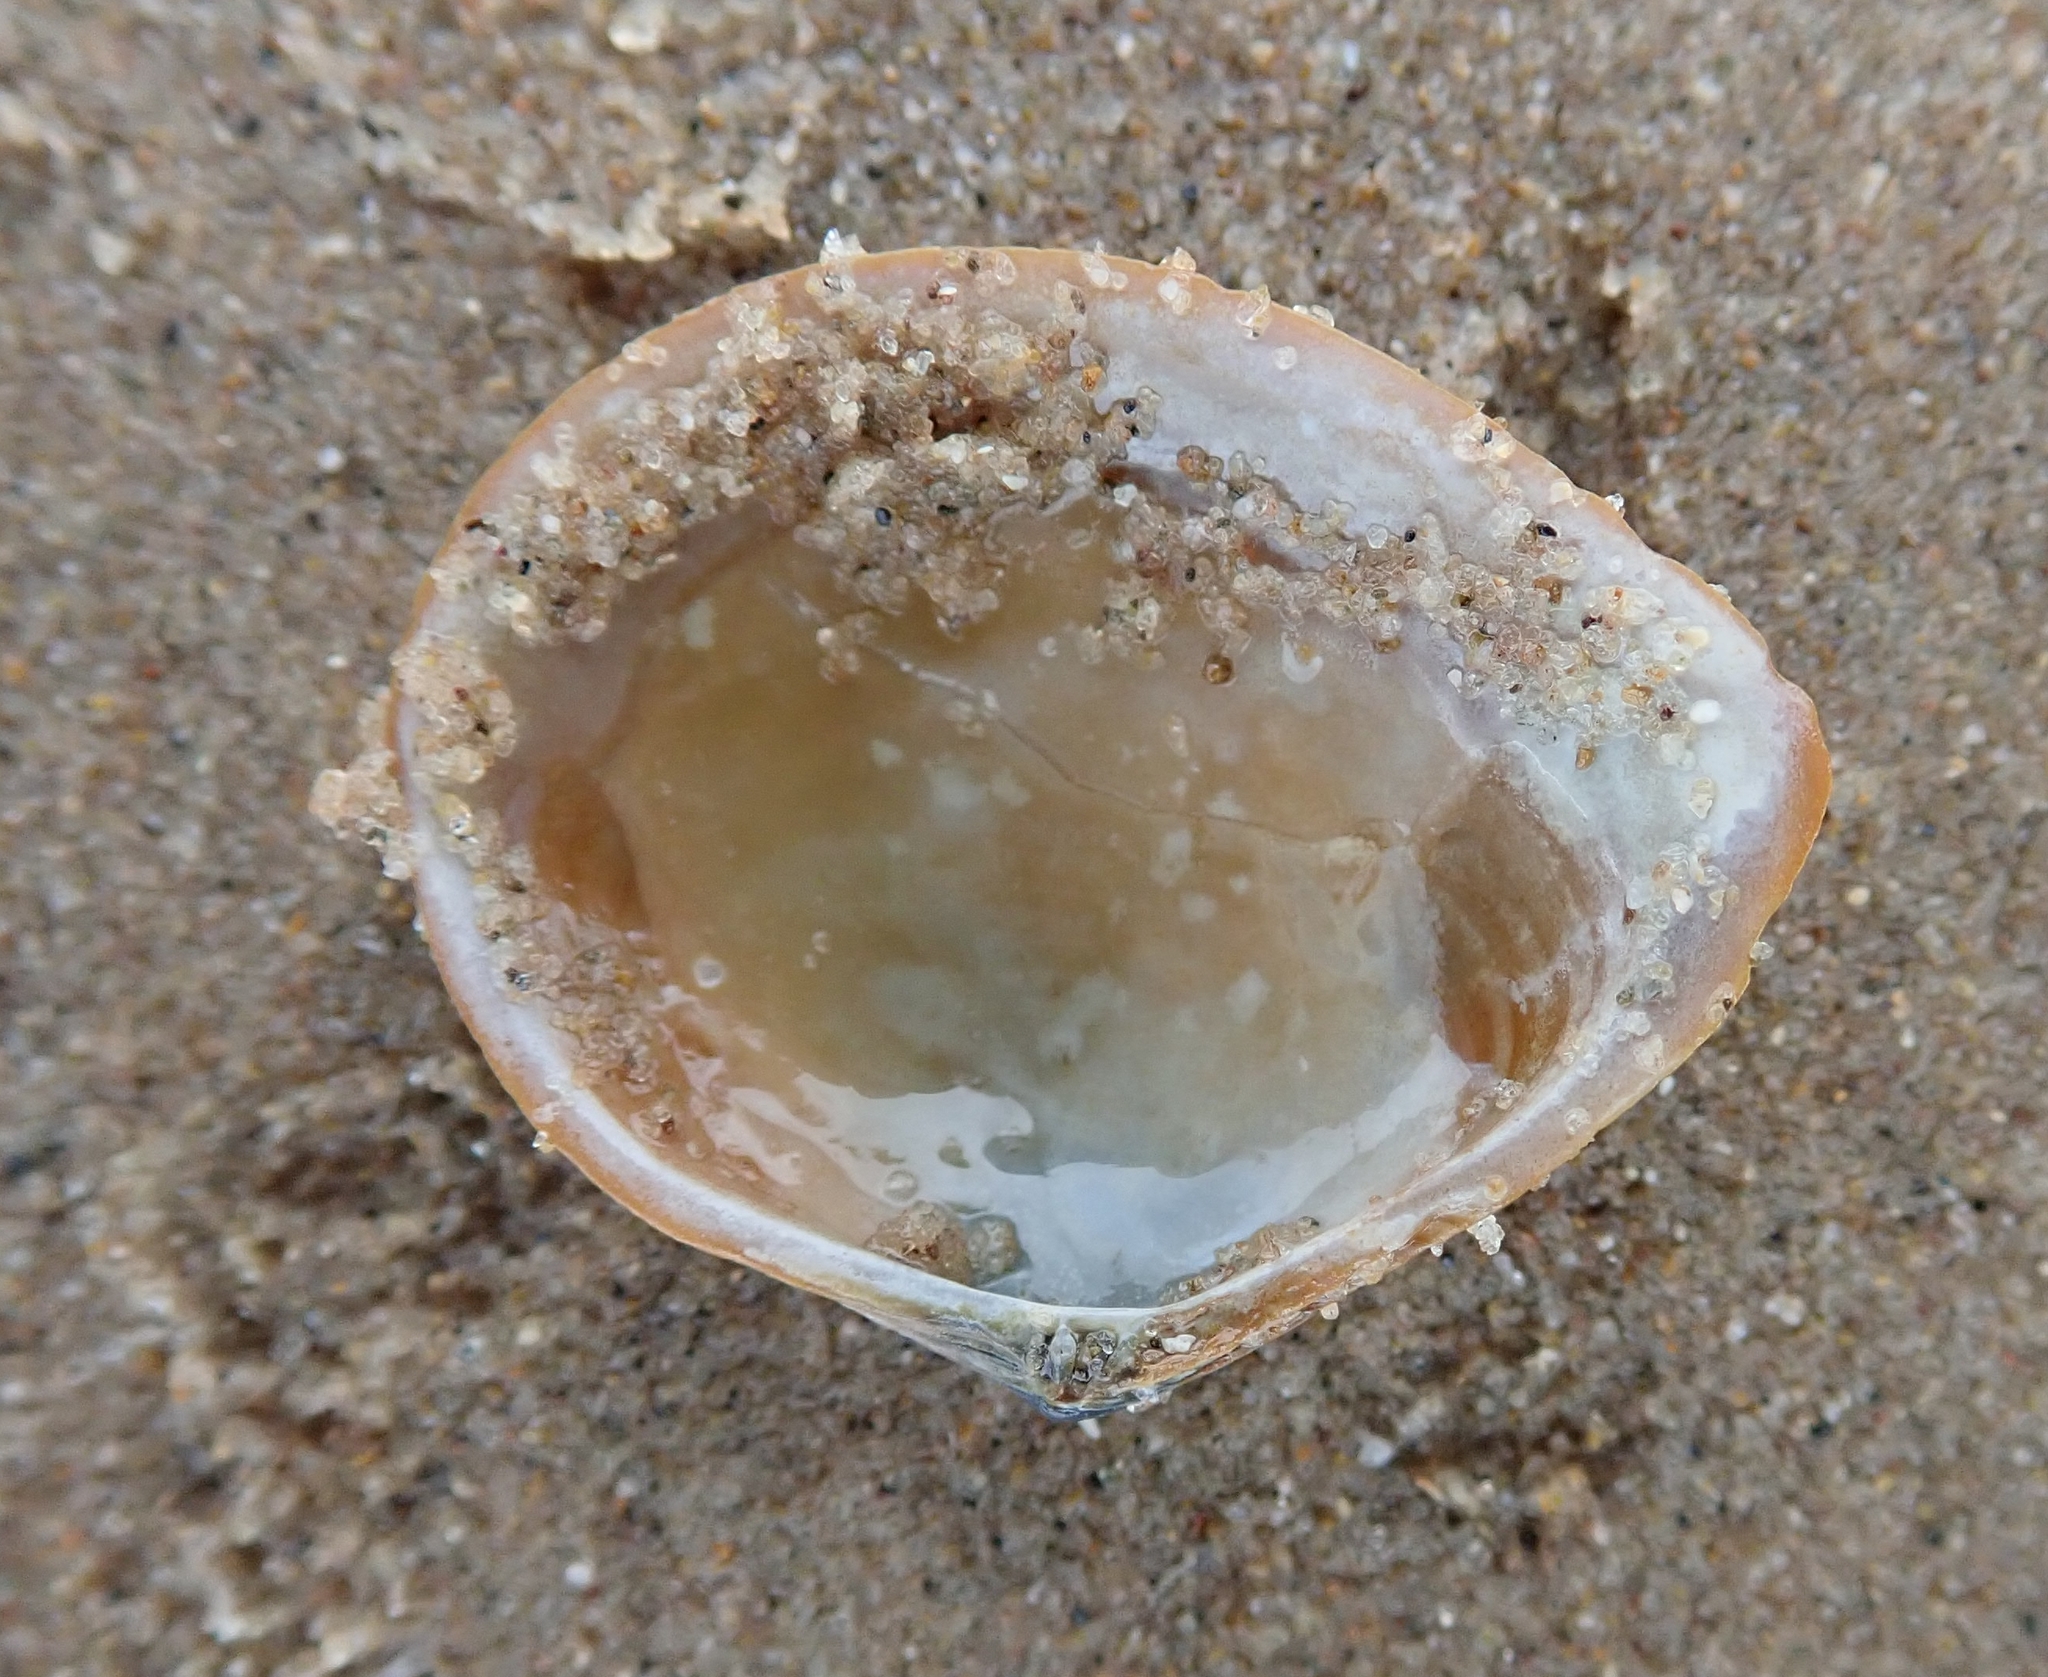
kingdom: Animalia
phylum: Mollusca
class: Bivalvia
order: Cardiida
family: Tellinidae
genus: Macoma
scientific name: Macoma balthica
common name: Baltic tellin
